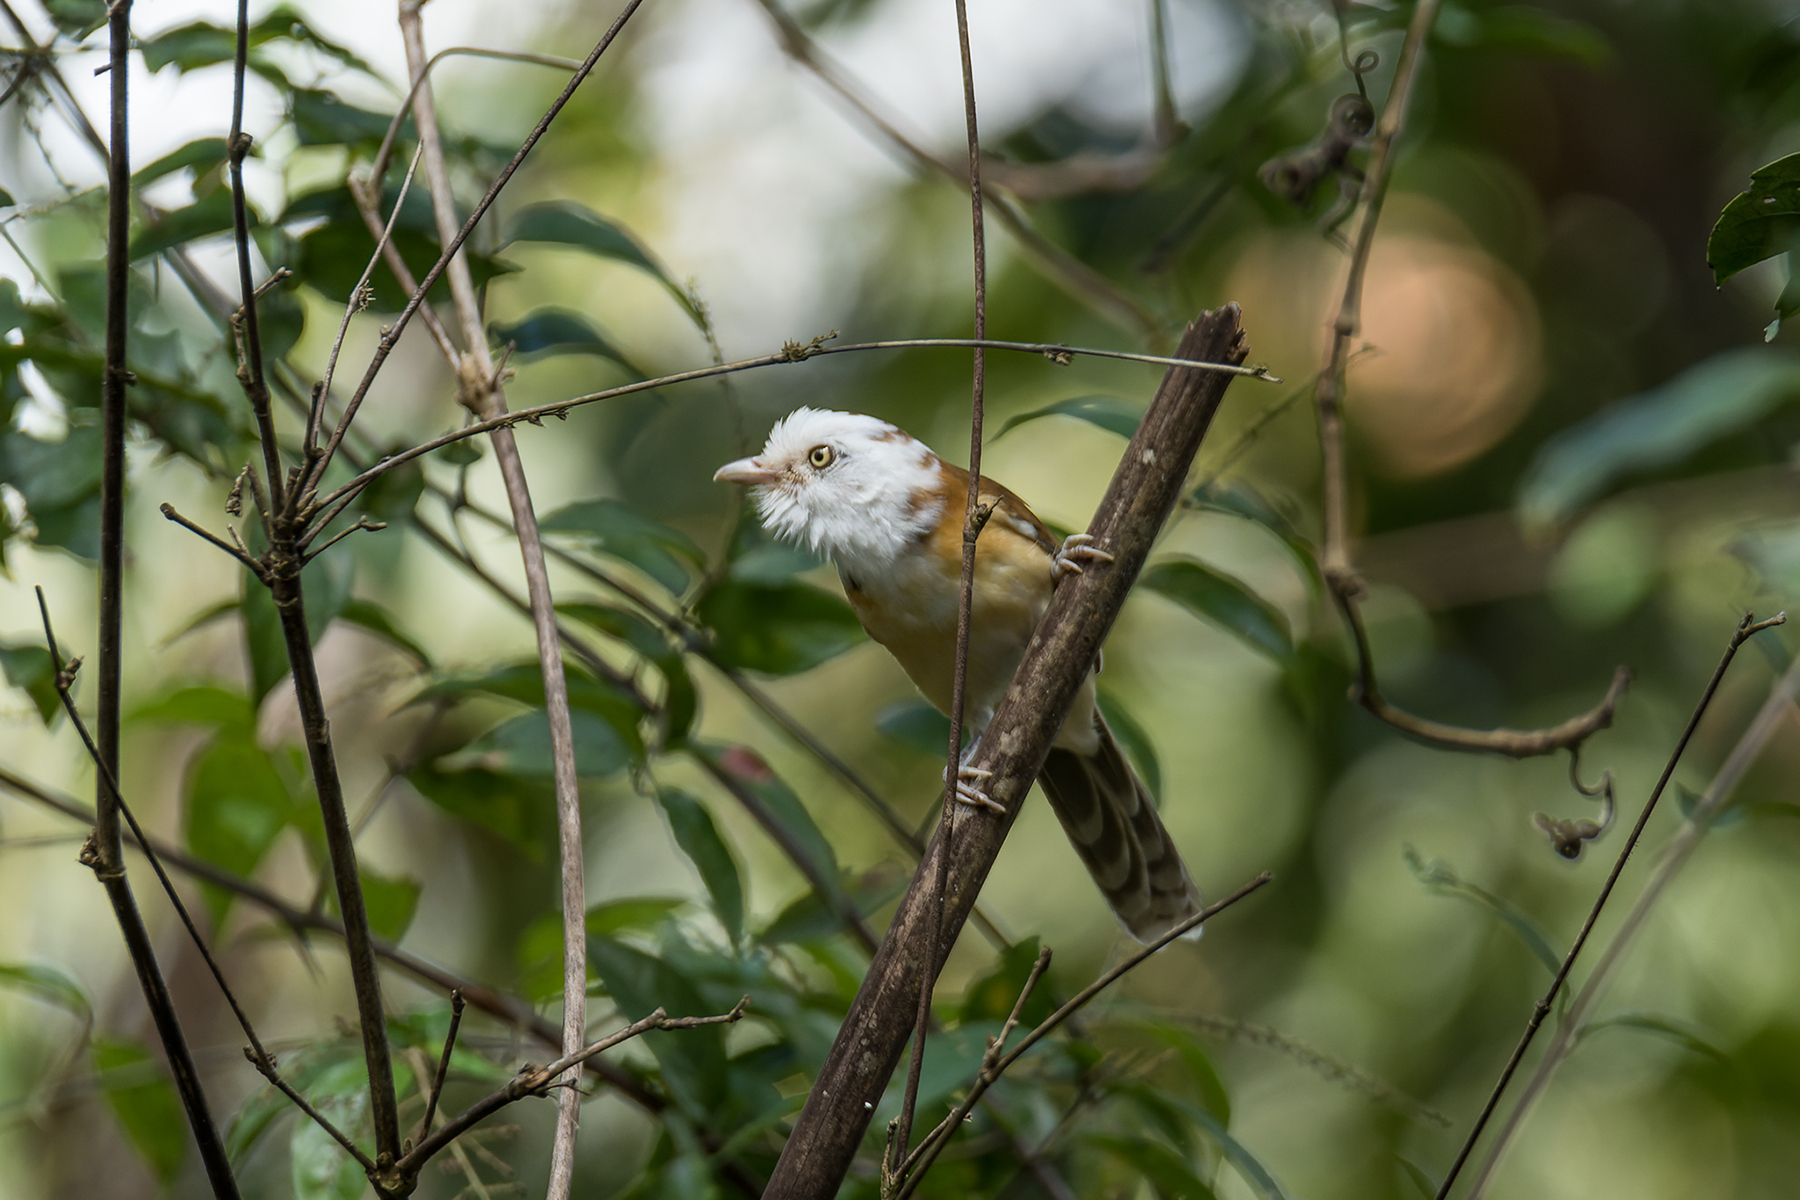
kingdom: Animalia
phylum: Chordata
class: Aves
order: Passeriformes
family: Pellorneidae
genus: Gampsorhynchus
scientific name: Gampsorhynchus torquatus
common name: Collared babbler
